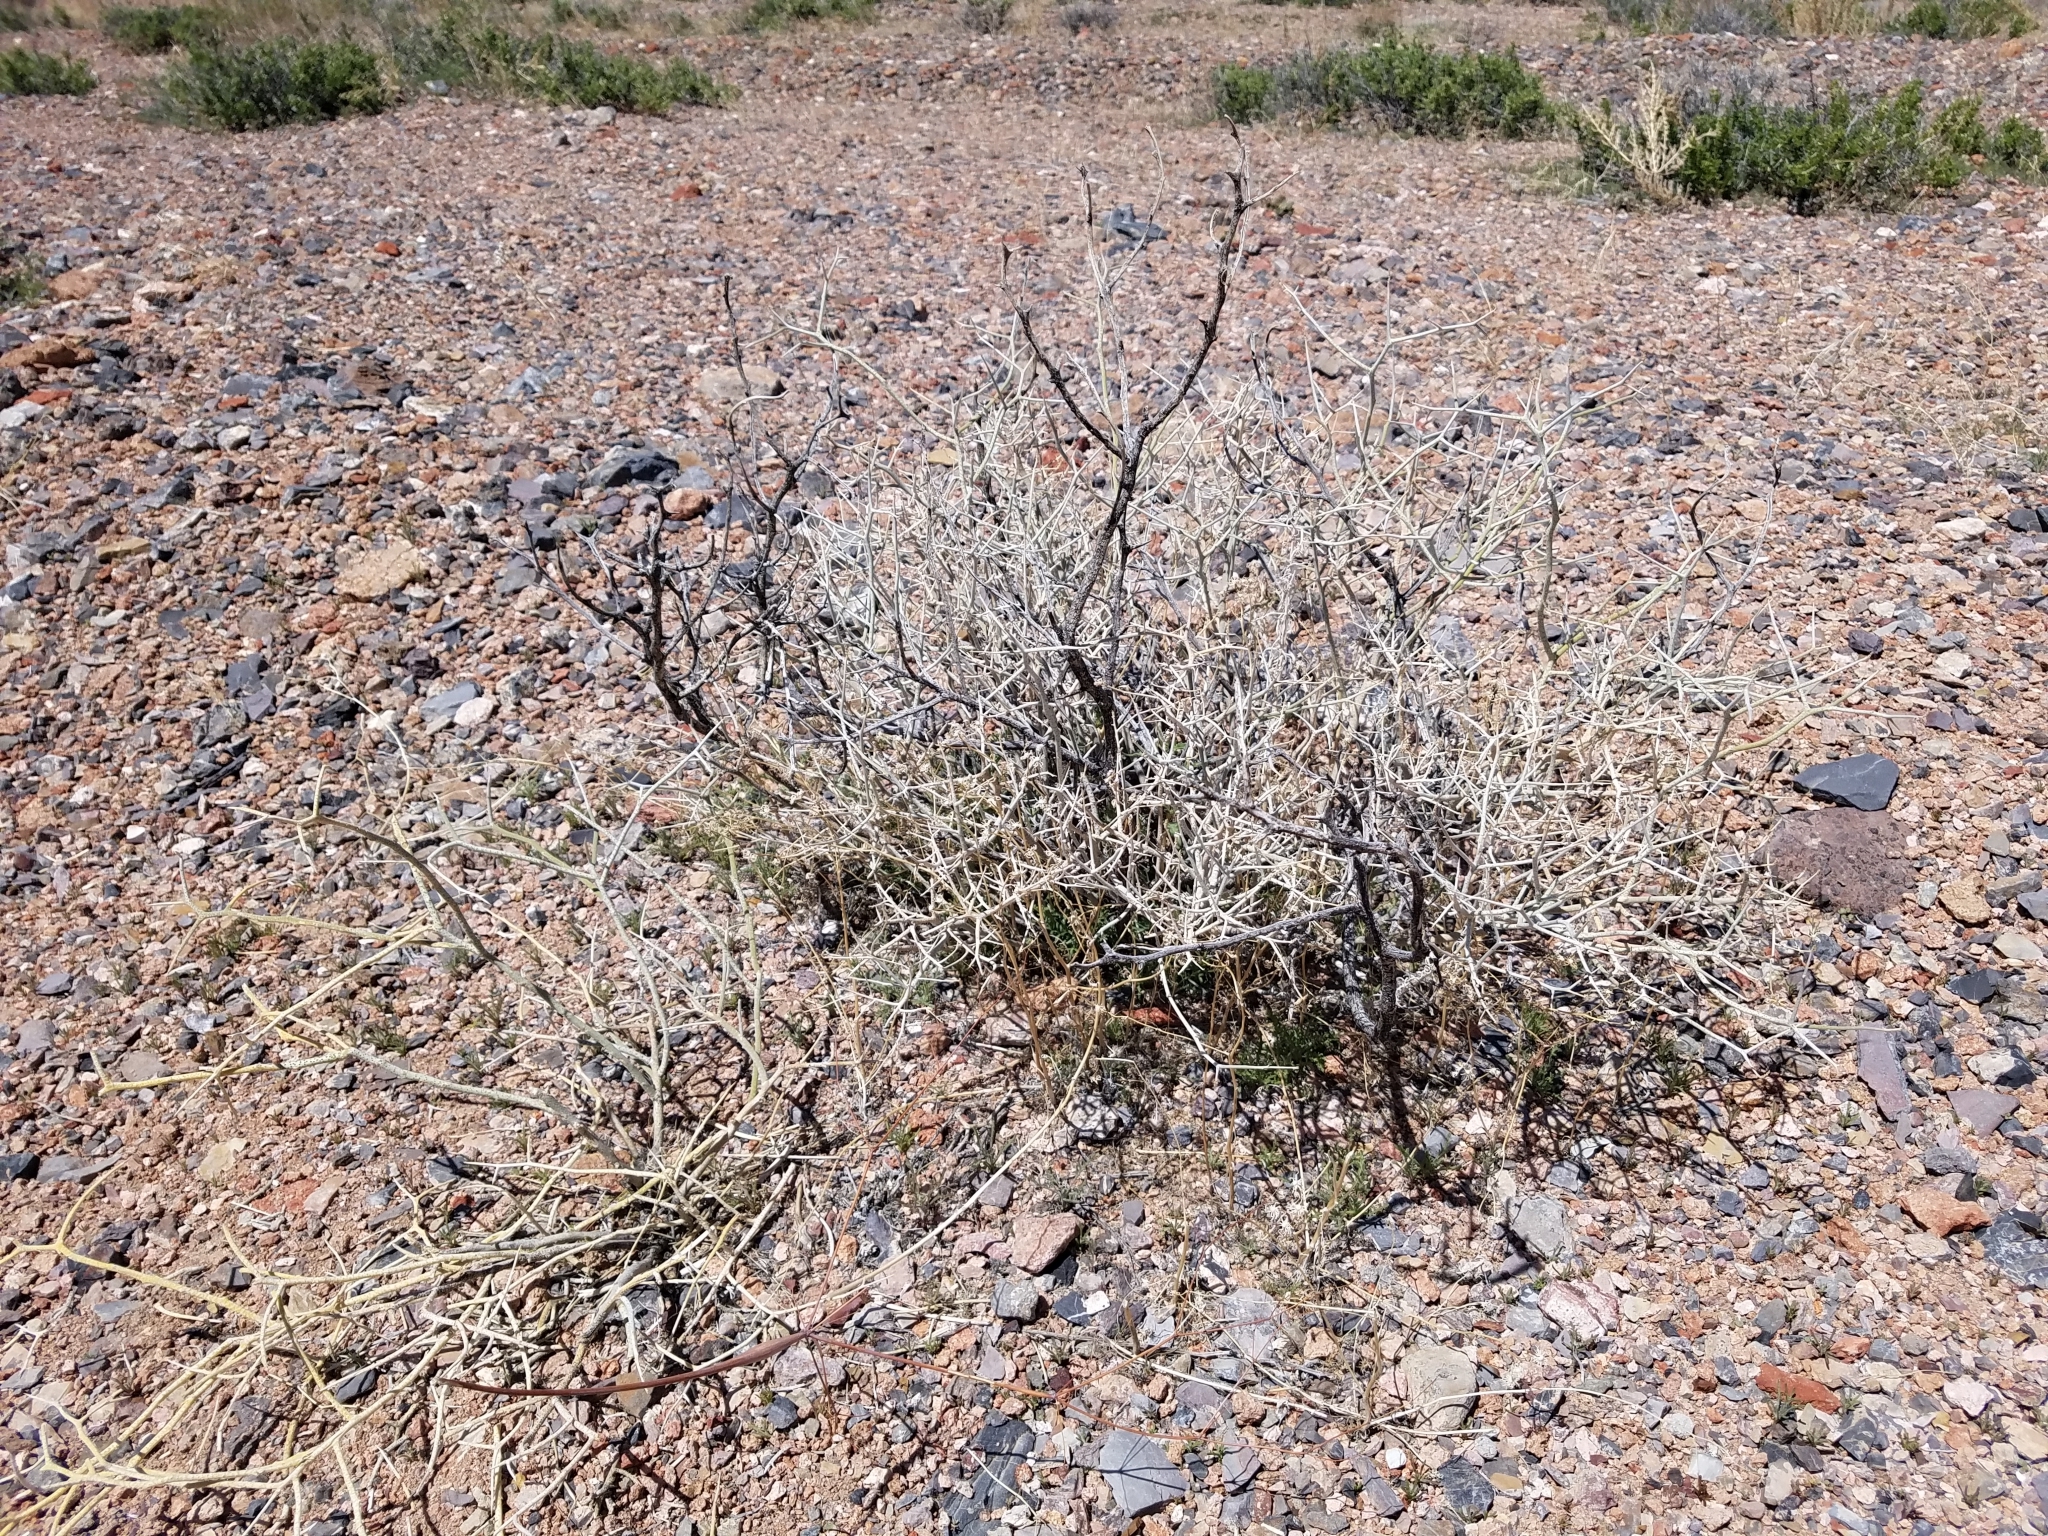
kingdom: Plantae
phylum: Tracheophyta
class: Magnoliopsida
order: Fabales
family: Fabaceae
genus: Psorothamnus
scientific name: Psorothamnus polydenius
